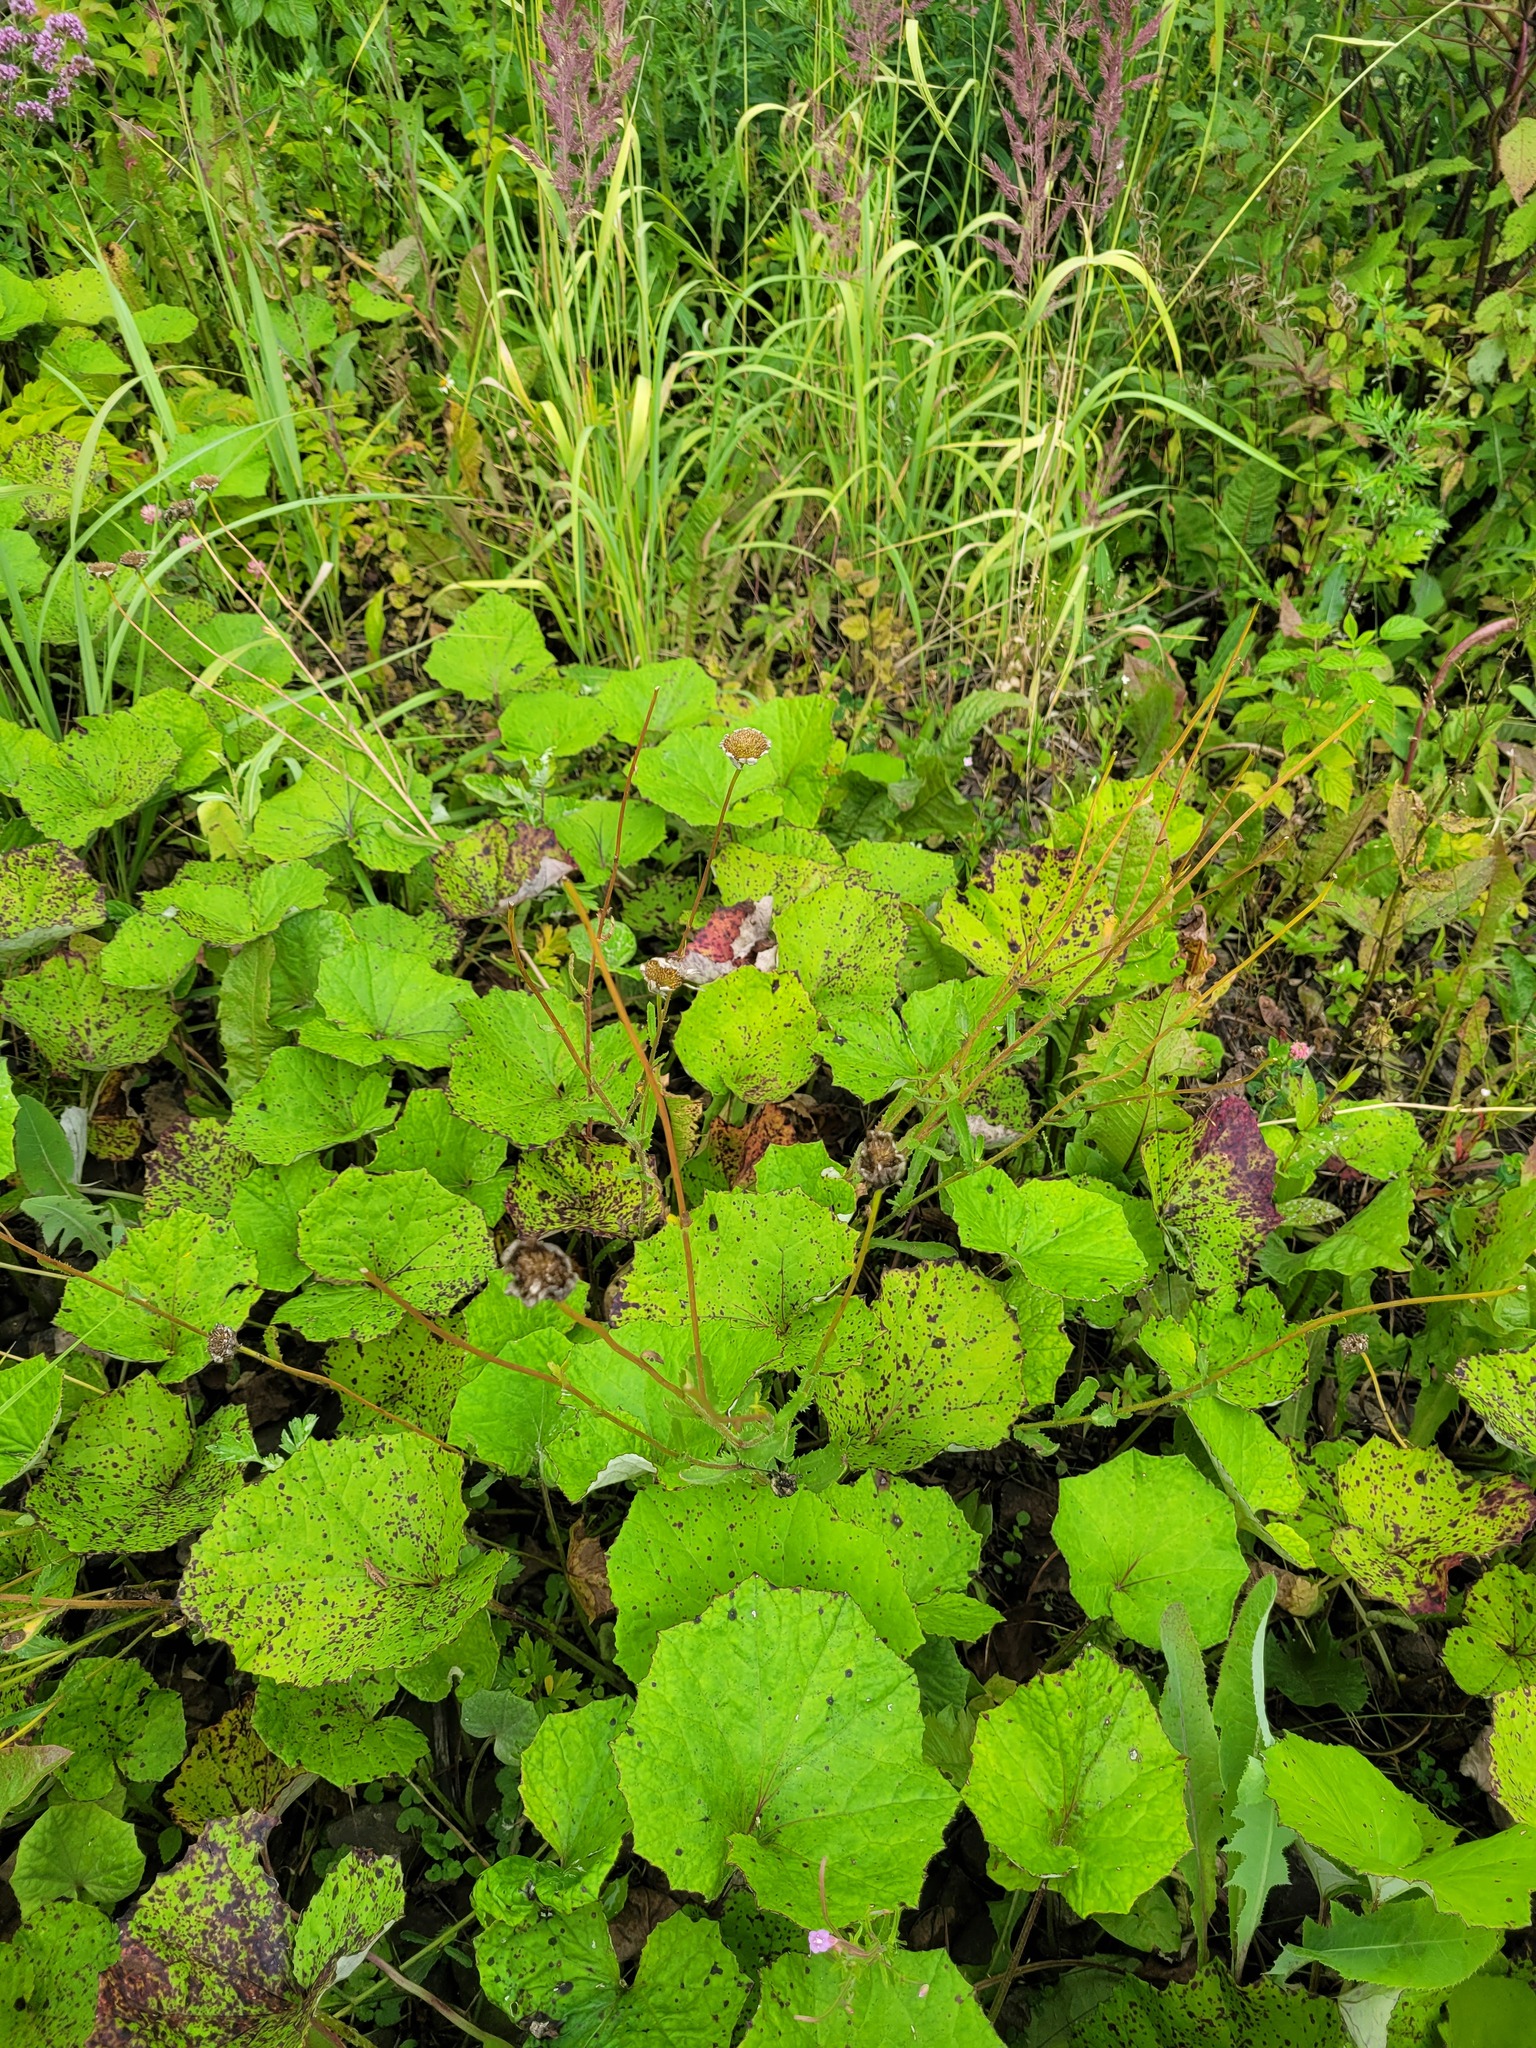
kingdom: Plantae
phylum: Tracheophyta
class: Magnoliopsida
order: Asterales
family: Asteraceae
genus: Leucanthemum
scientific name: Leucanthemum vulgare
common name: Oxeye daisy
